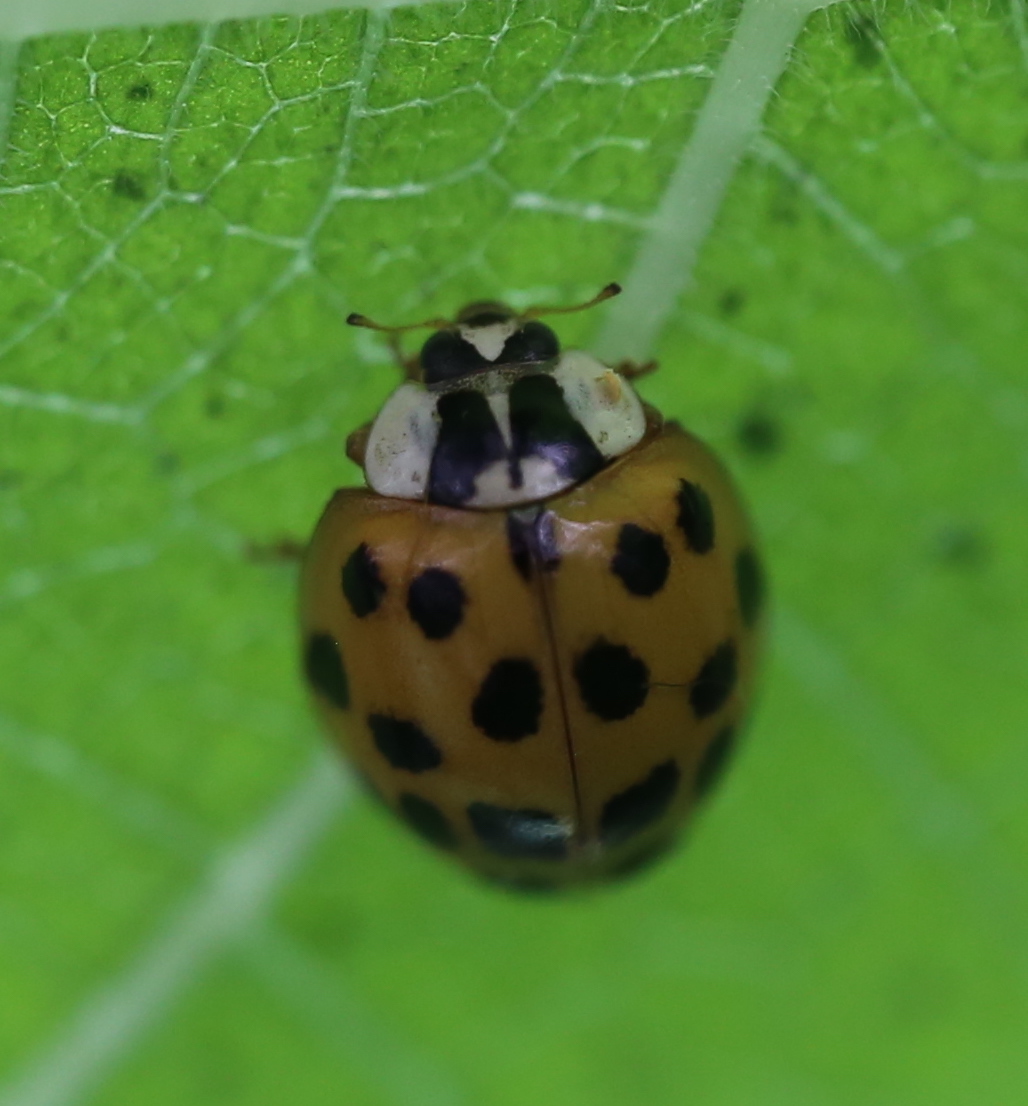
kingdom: Animalia
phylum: Arthropoda
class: Insecta
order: Coleoptera
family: Coccinellidae
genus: Harmonia
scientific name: Harmonia axyridis
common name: Harlequin ladybird
